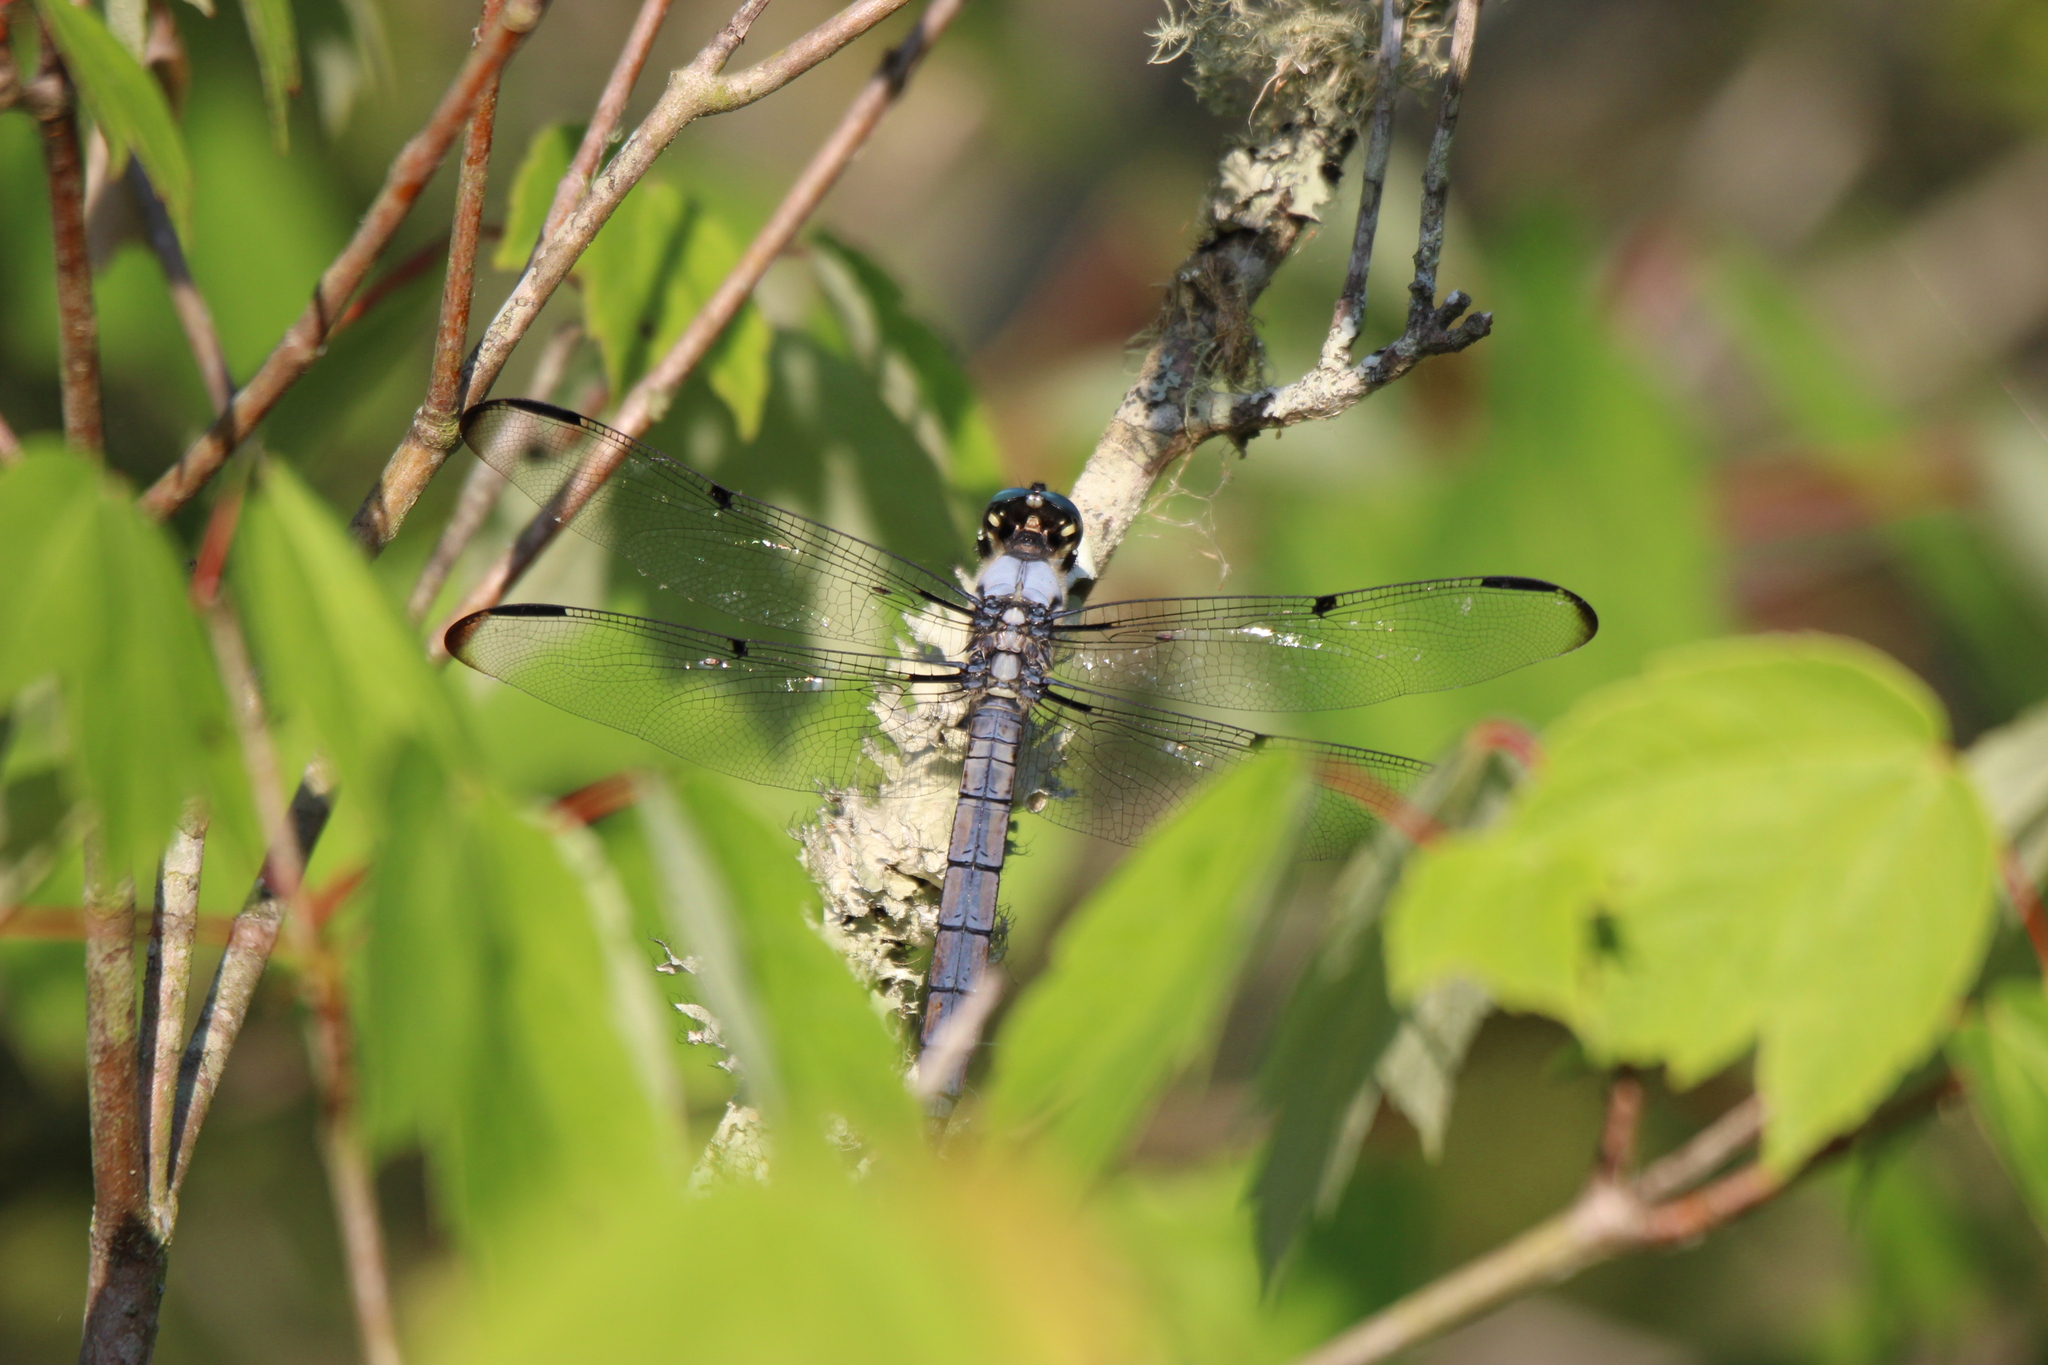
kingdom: Animalia
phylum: Arthropoda
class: Insecta
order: Odonata
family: Libellulidae
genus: Libellula
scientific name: Libellula vibrans
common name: Great blue skimmer
